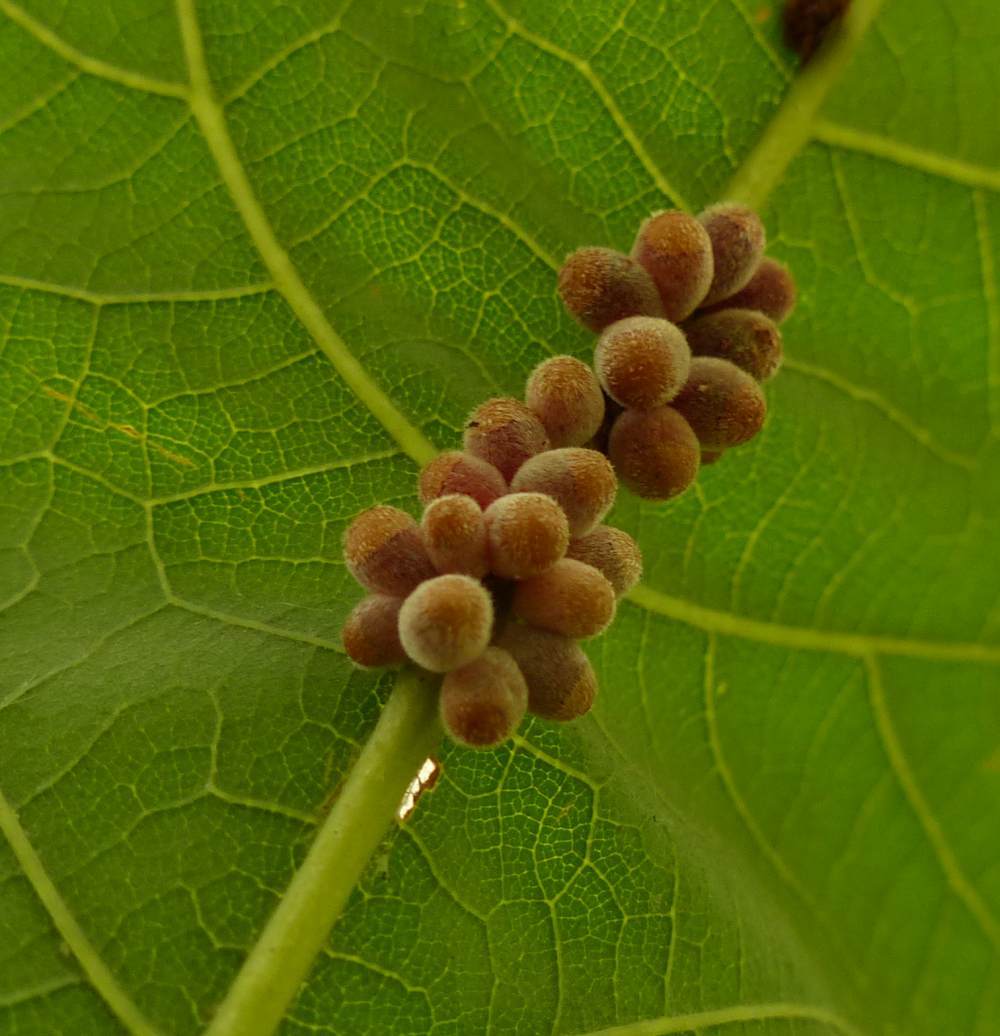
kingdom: Animalia
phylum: Arthropoda
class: Insecta
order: Hymenoptera
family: Cynipidae
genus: Andricus
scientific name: Andricus
